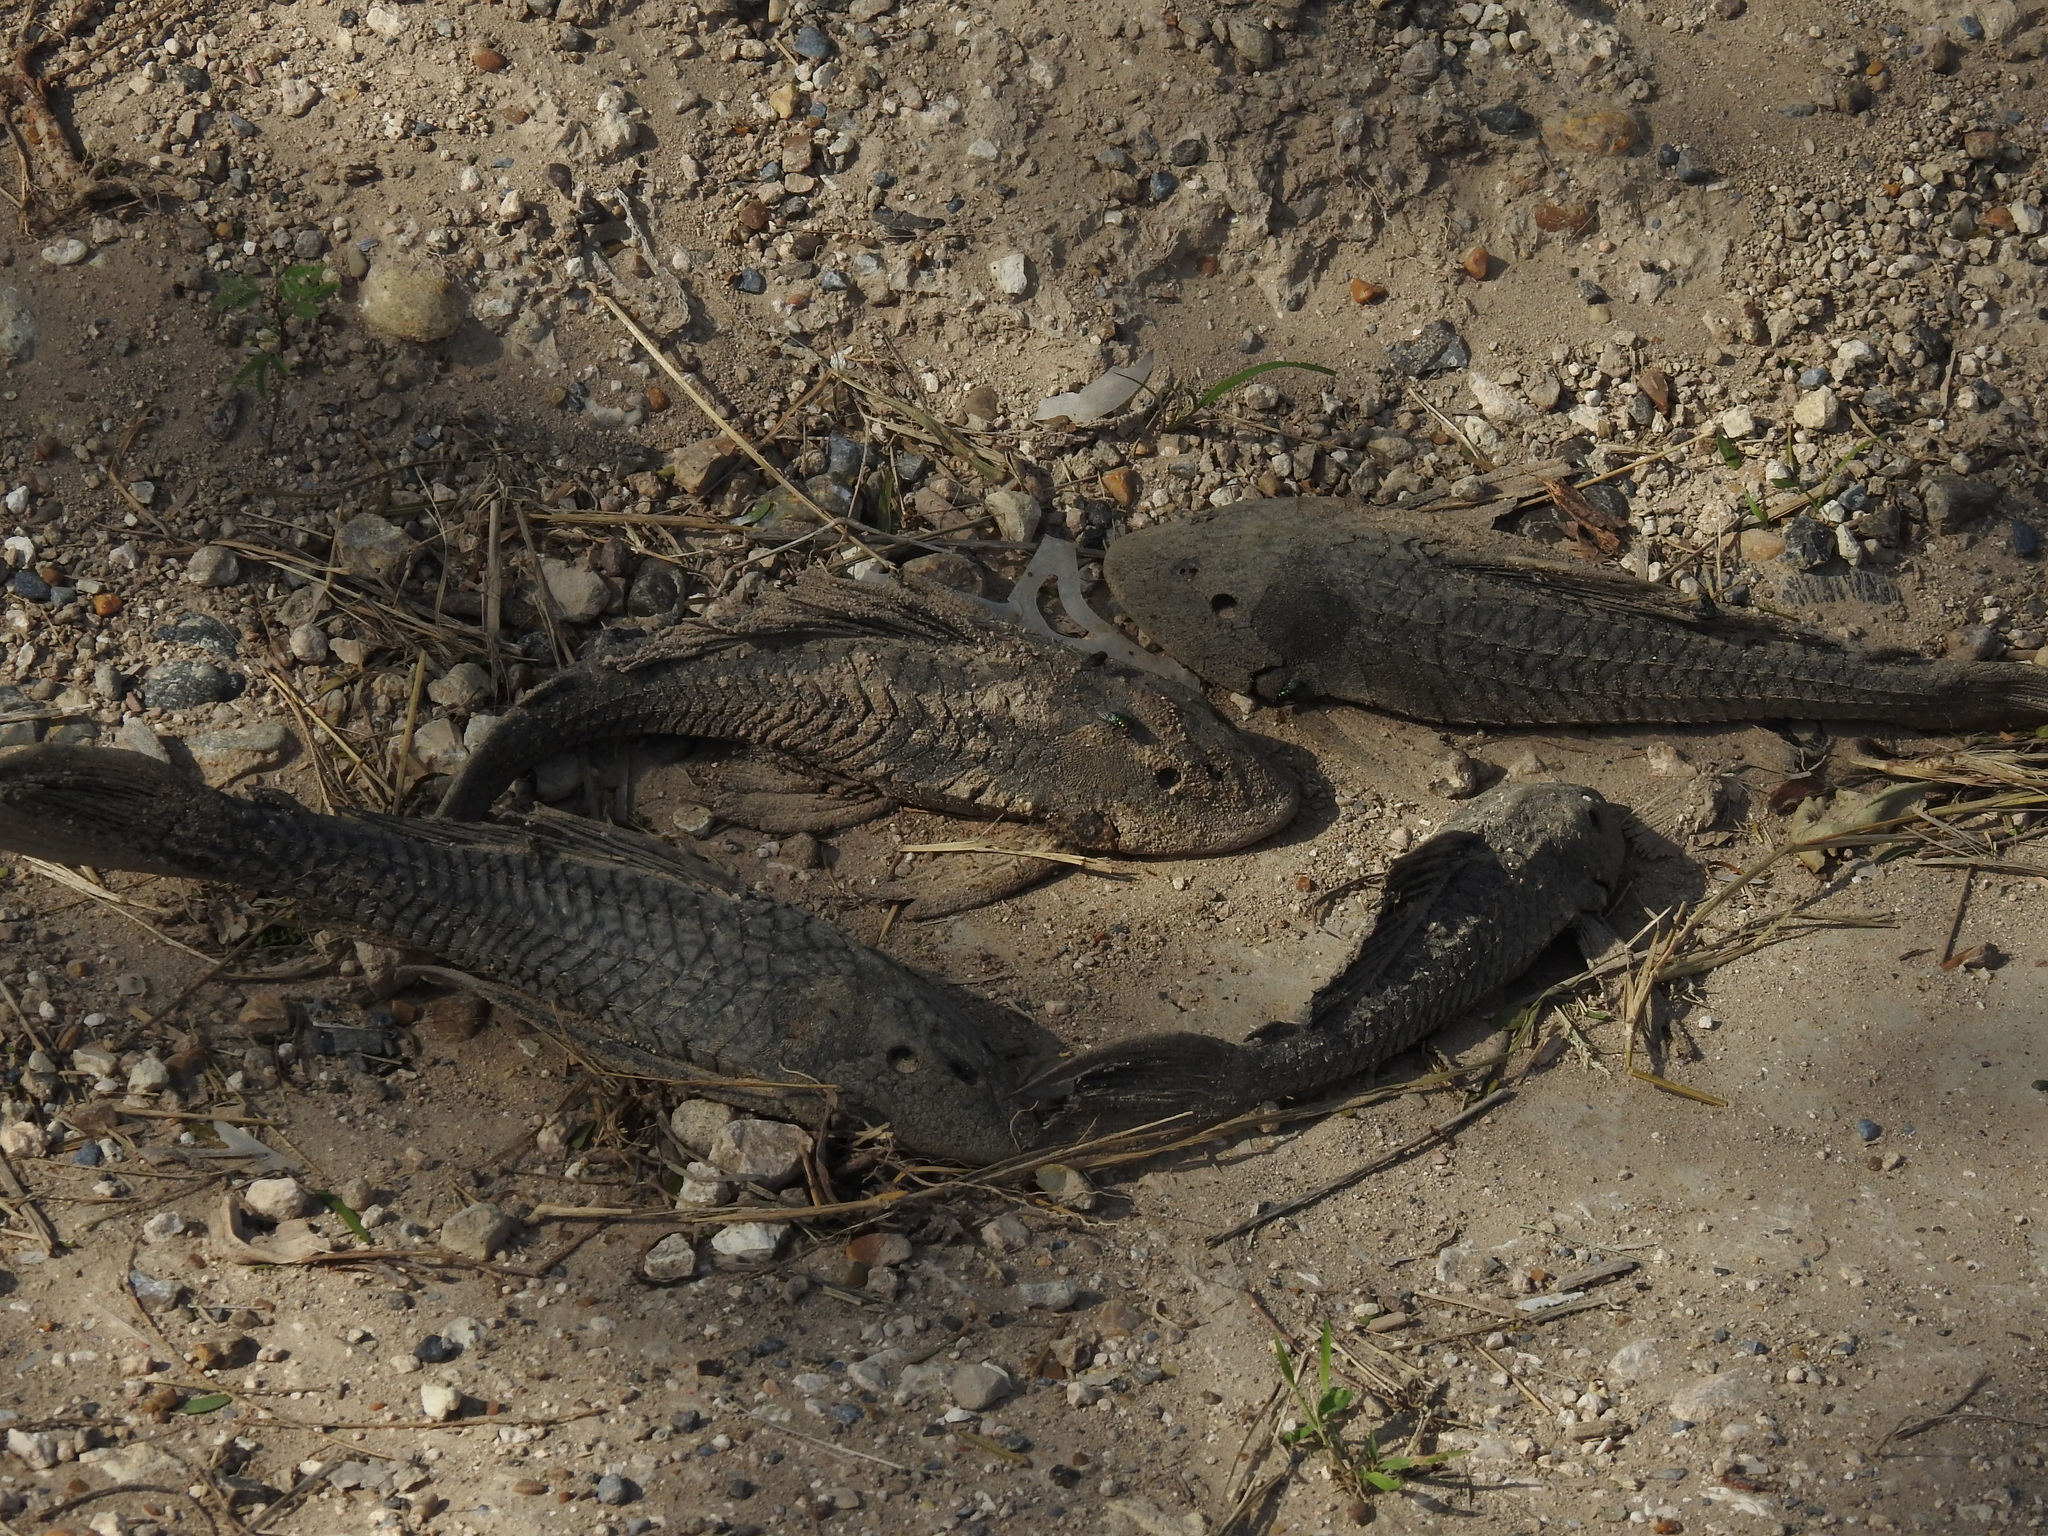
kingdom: Animalia
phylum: Chordata
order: Siluriformes
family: Loricariidae
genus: Pterygoplichthys
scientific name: Pterygoplichthys
